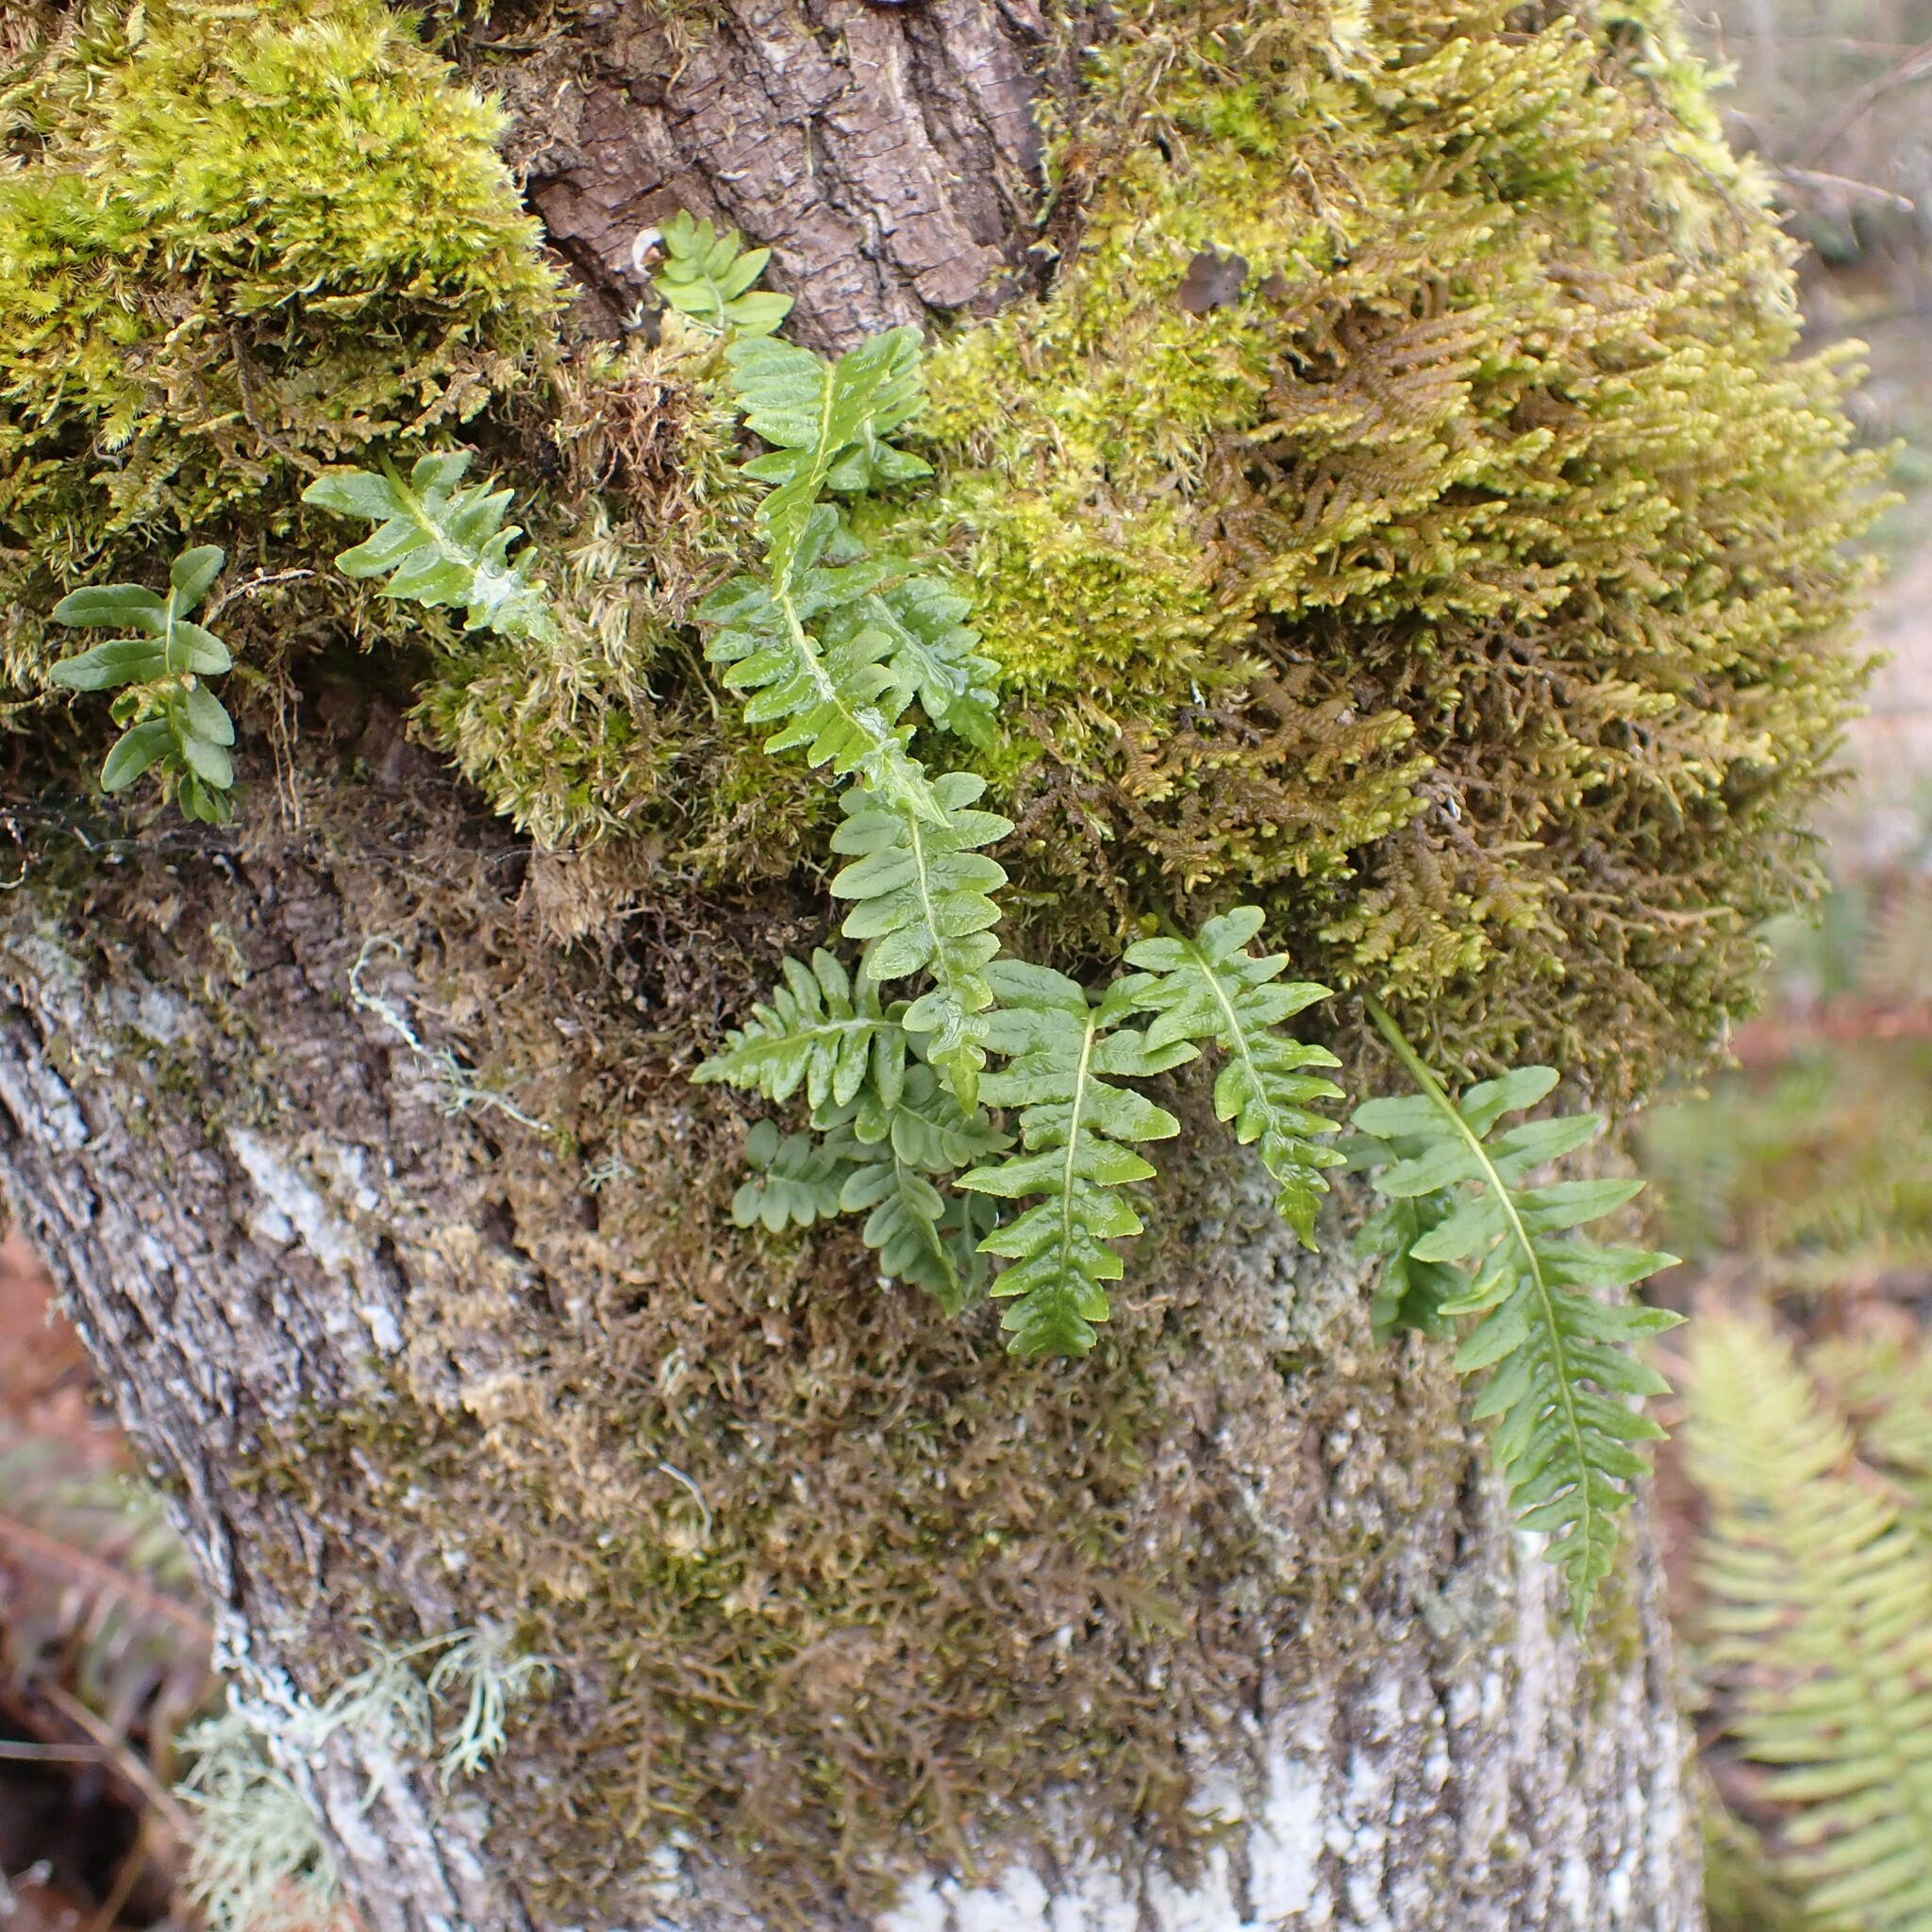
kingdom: Plantae
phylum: Tracheophyta
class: Polypodiopsida
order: Polypodiales
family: Polypodiaceae
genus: Polypodium
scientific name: Polypodium glycyrrhiza
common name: Licorice fern
